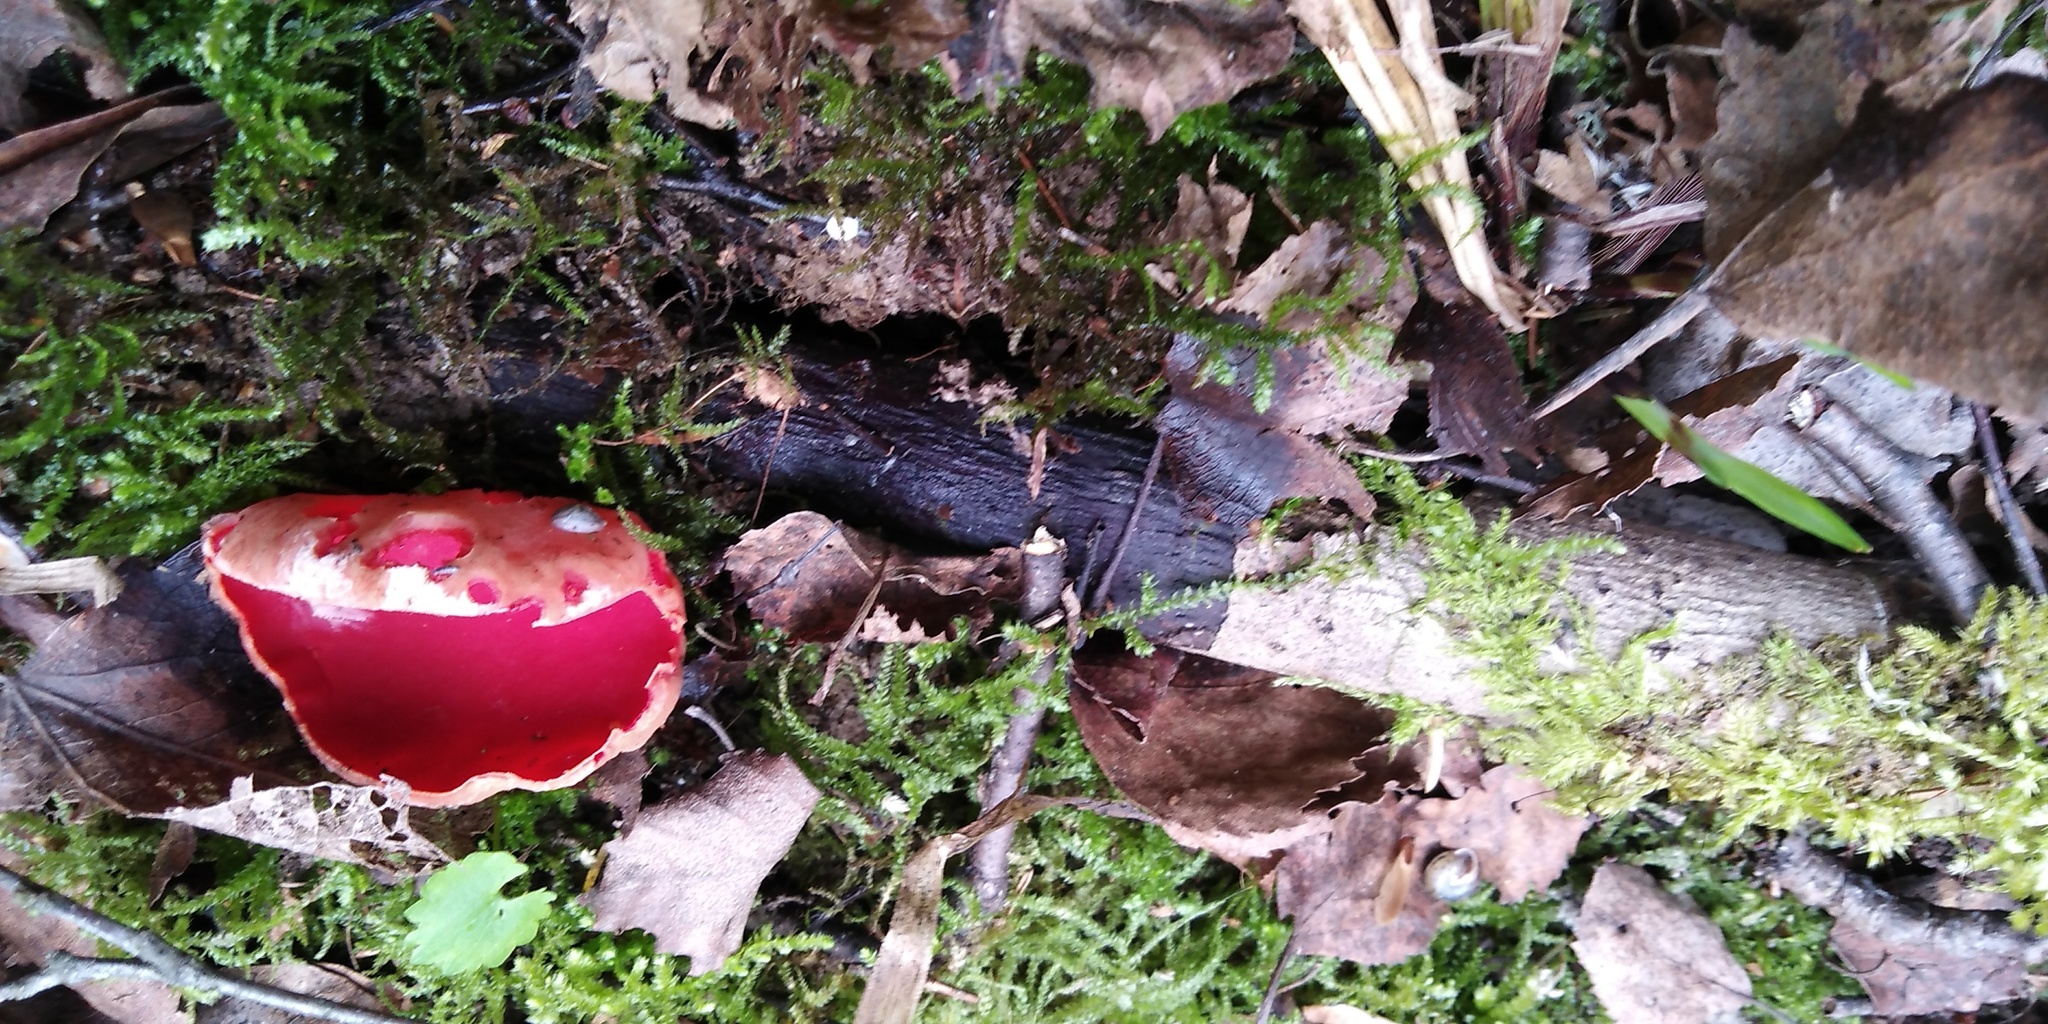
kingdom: Fungi
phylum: Ascomycota
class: Pezizomycetes
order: Pezizales
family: Sarcoscyphaceae
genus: Sarcoscypha
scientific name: Sarcoscypha austriaca
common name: Scarlet elfcup
